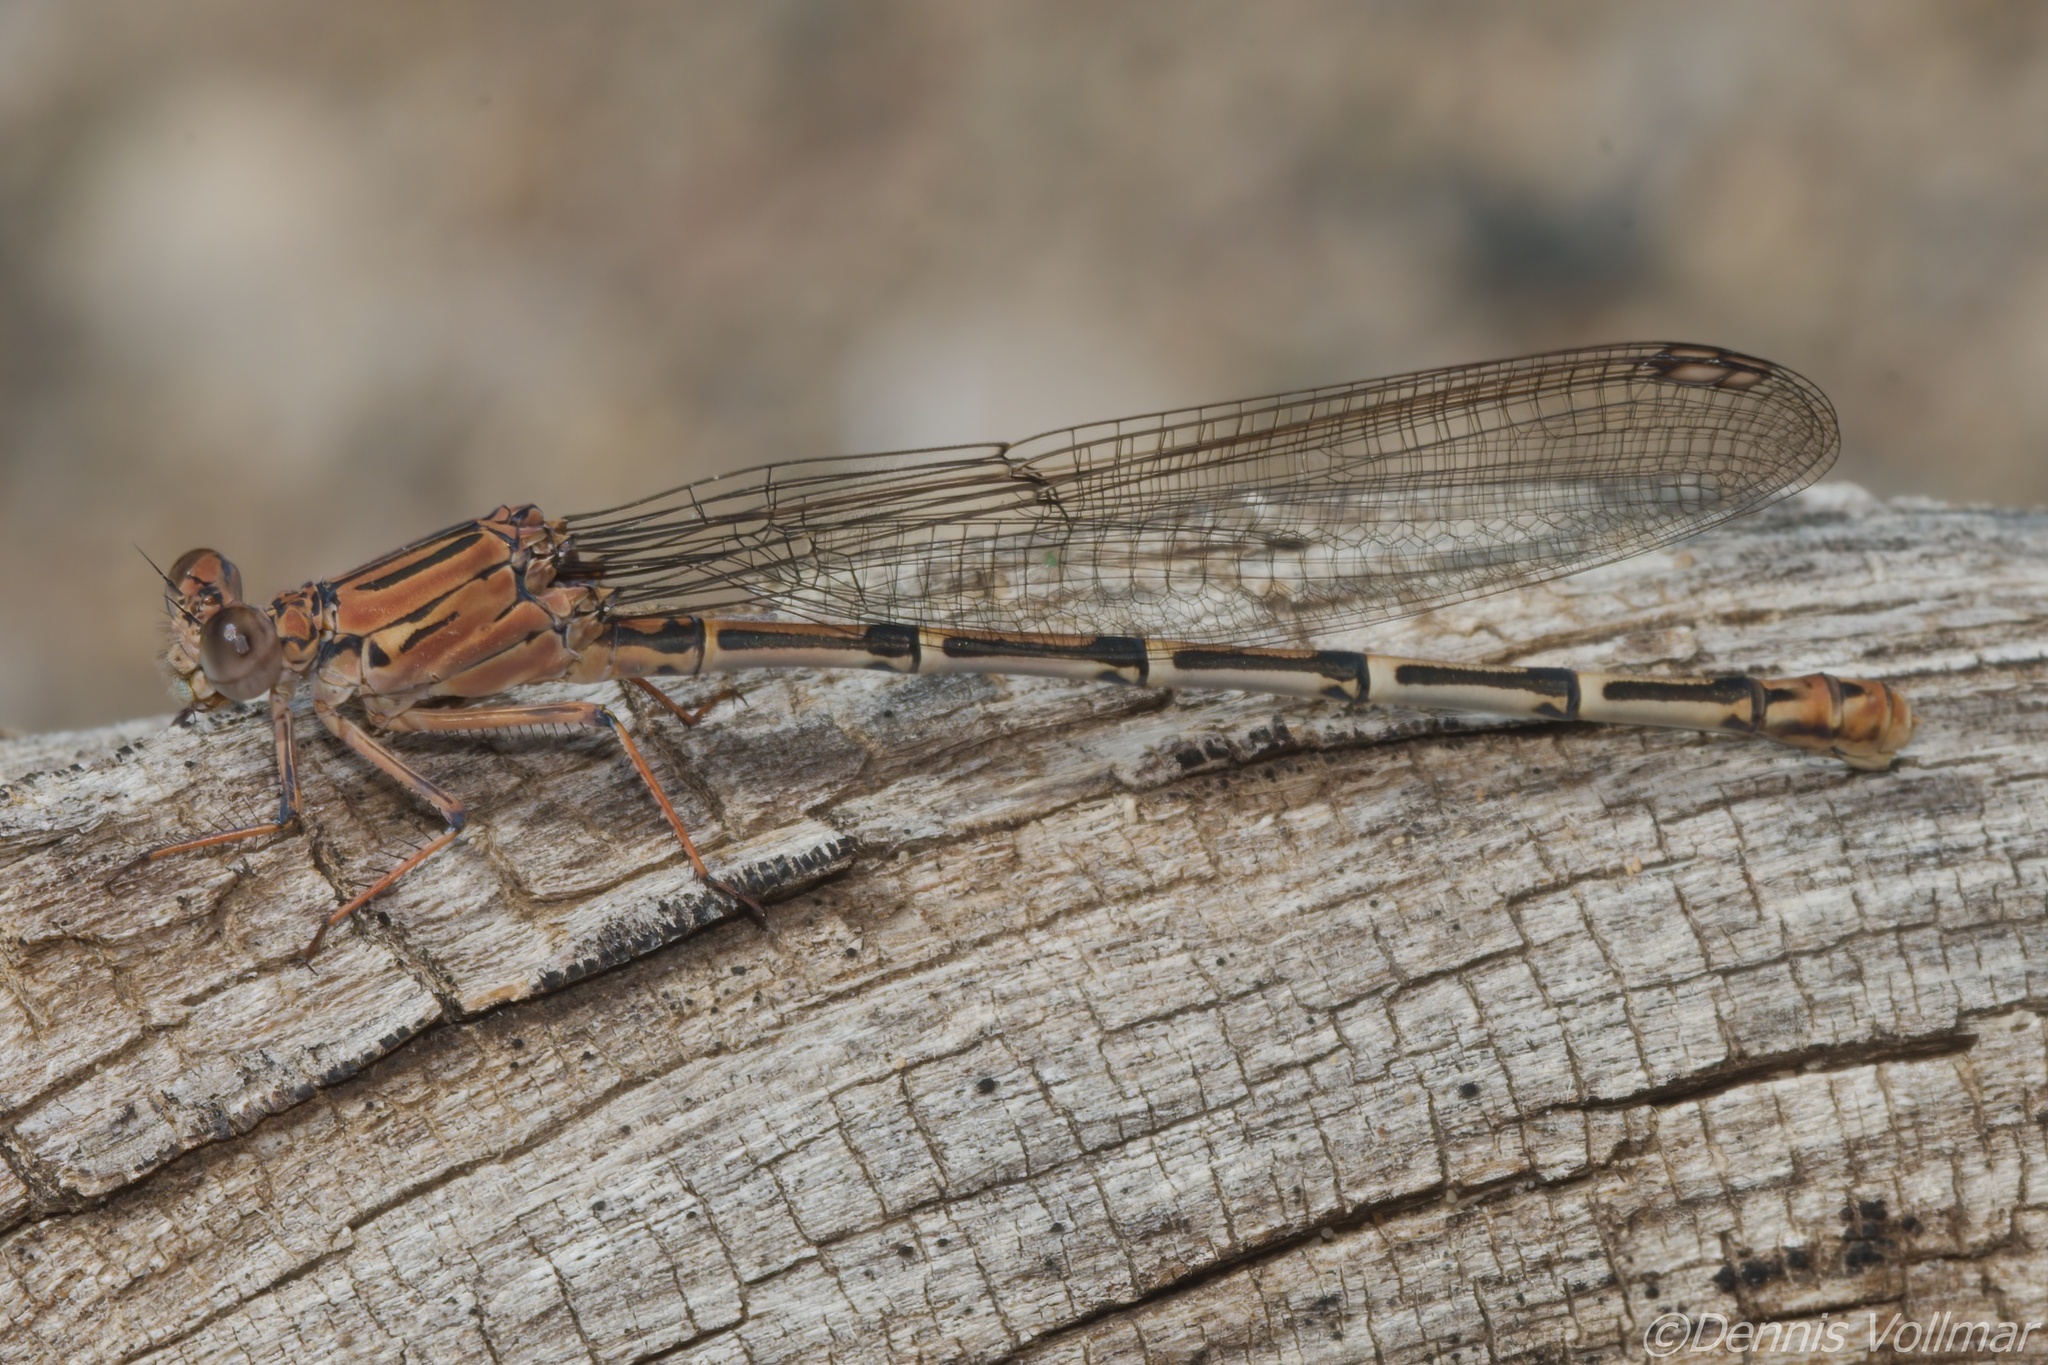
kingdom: Animalia
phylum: Arthropoda
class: Insecta
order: Odonata
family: Coenagrionidae
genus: Argia
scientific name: Argia lugens
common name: Sooty dancer
